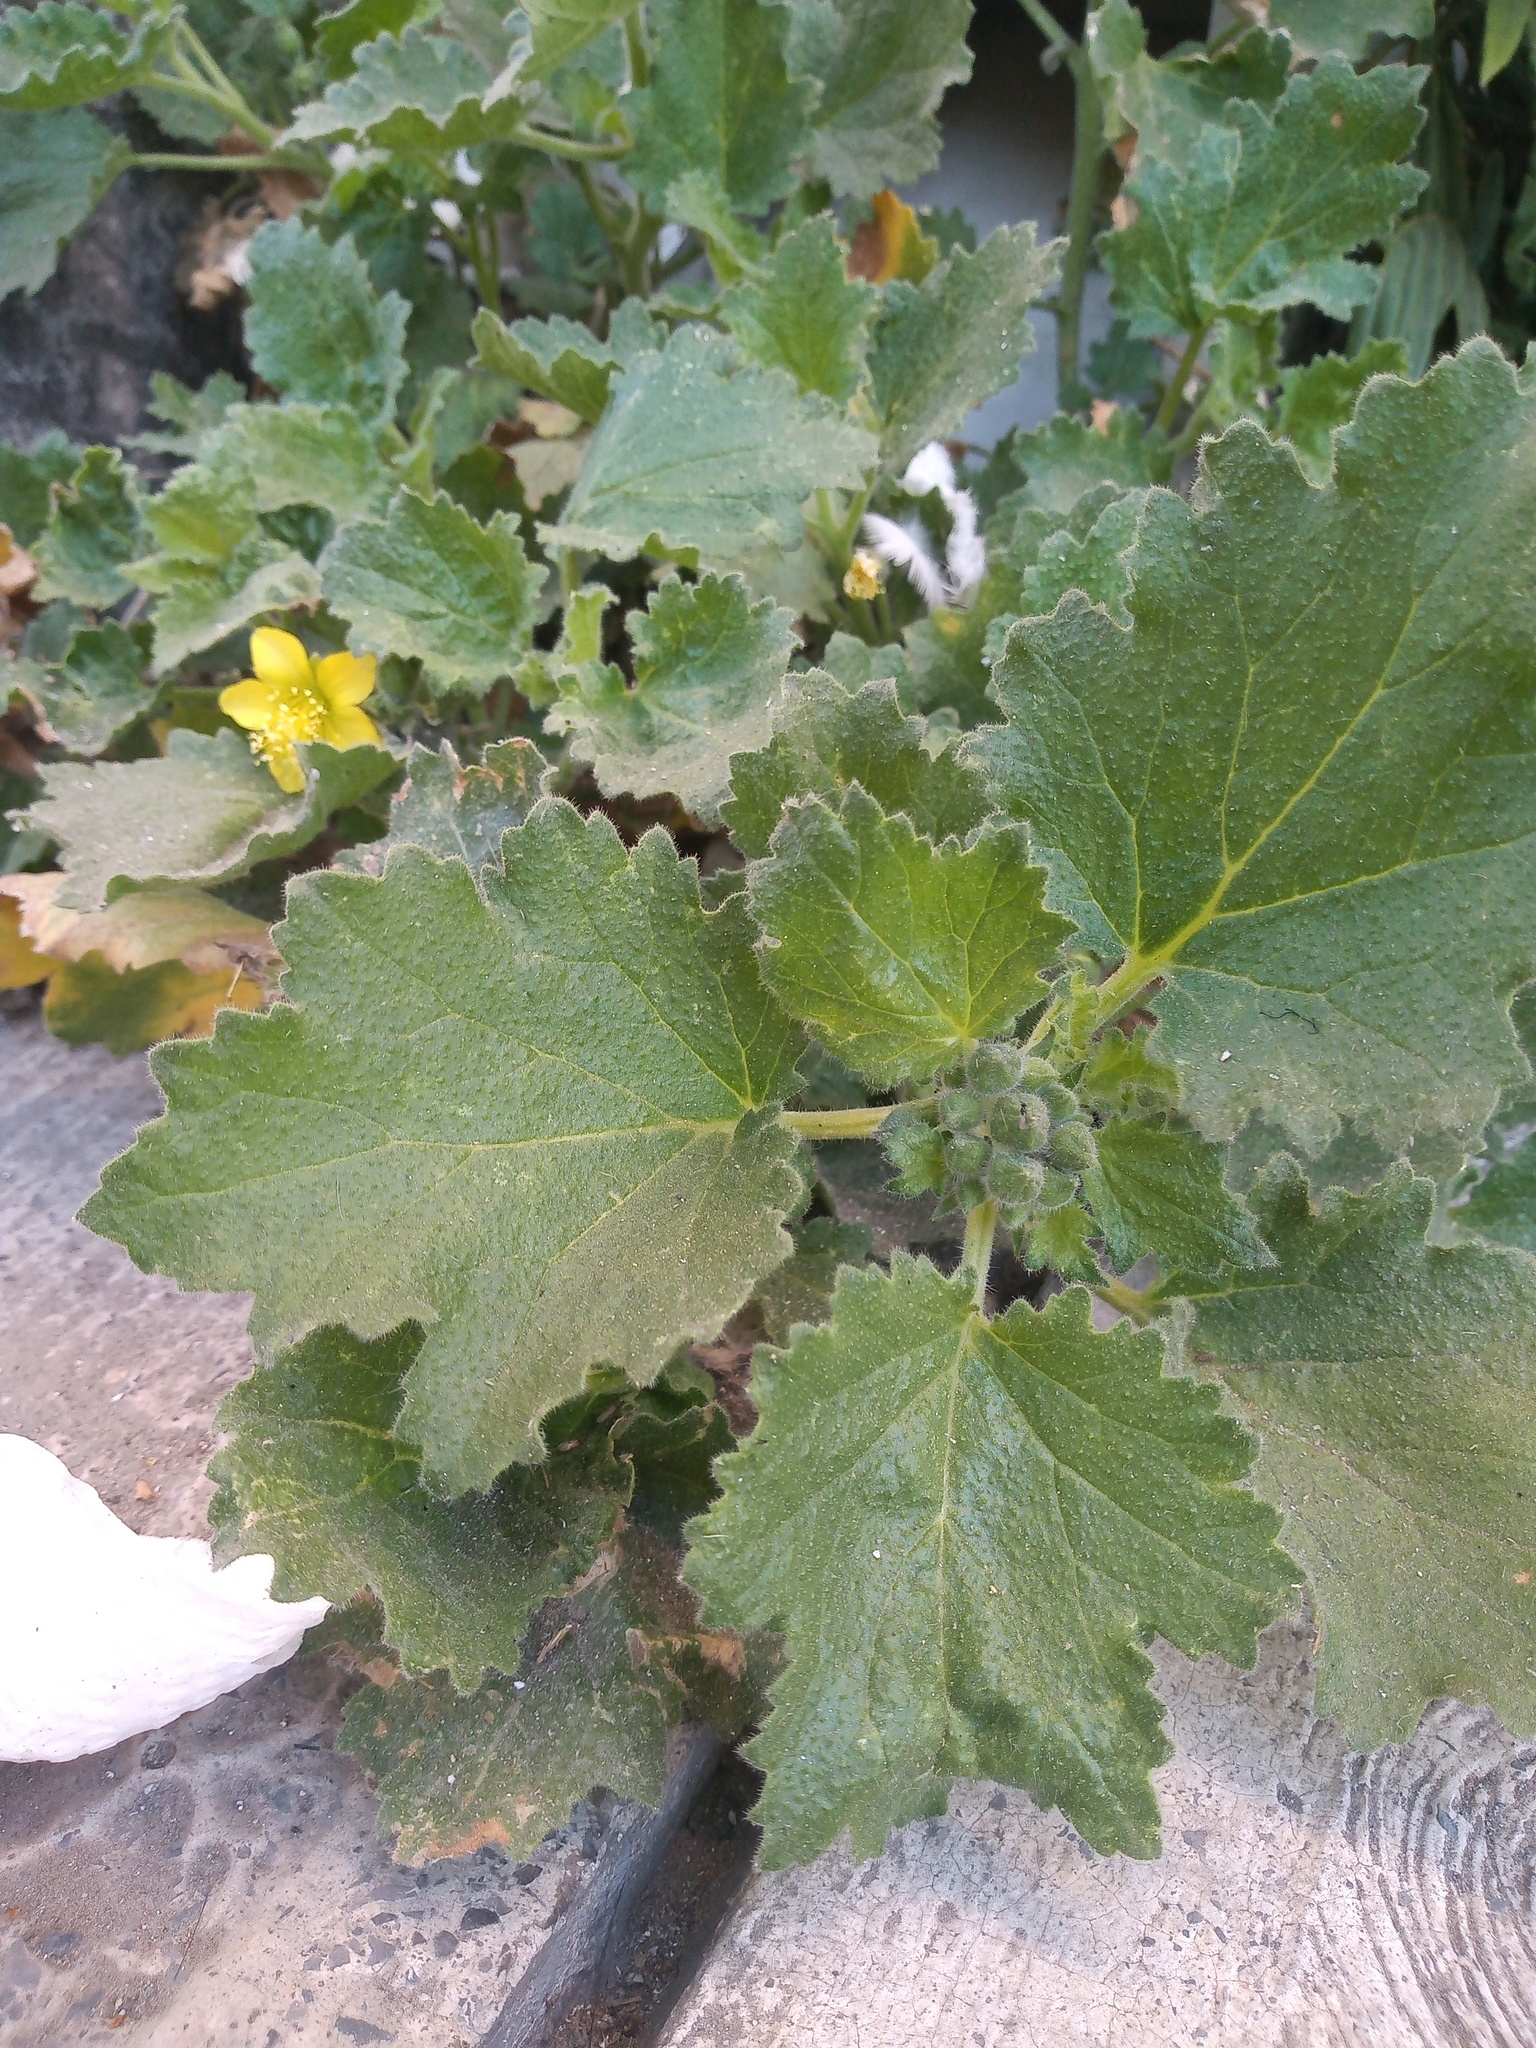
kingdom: Plantae
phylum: Tracheophyta
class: Magnoliopsida
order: Cornales
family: Loasaceae
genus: Eucnide
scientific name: Eucnide lobata
